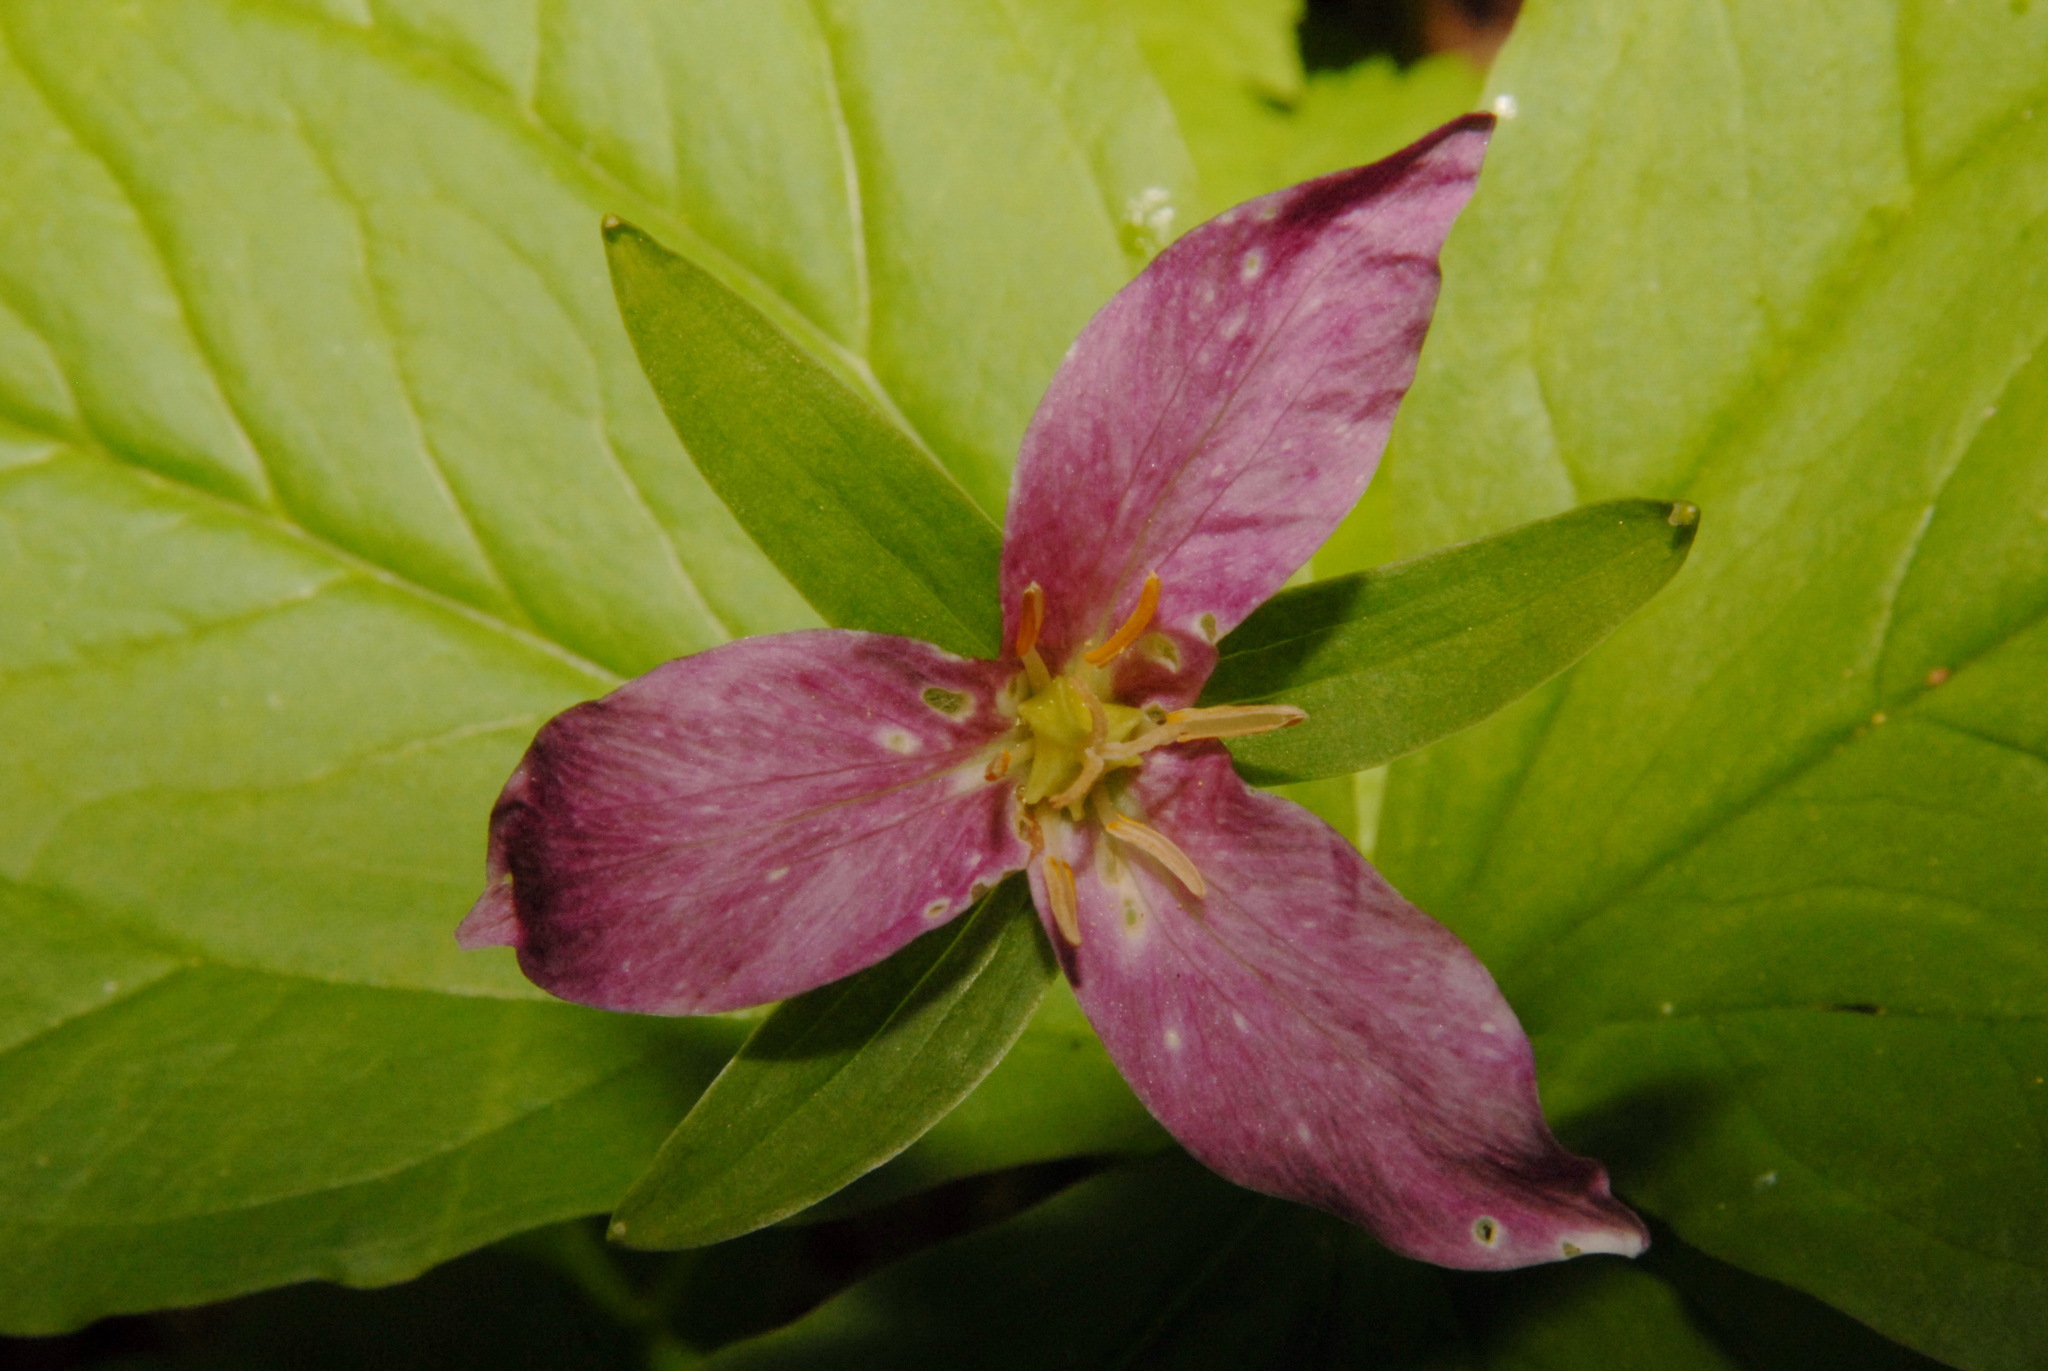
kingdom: Plantae
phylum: Tracheophyta
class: Liliopsida
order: Liliales
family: Melanthiaceae
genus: Trillium
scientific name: Trillium ovatum
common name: Pacific trillium
